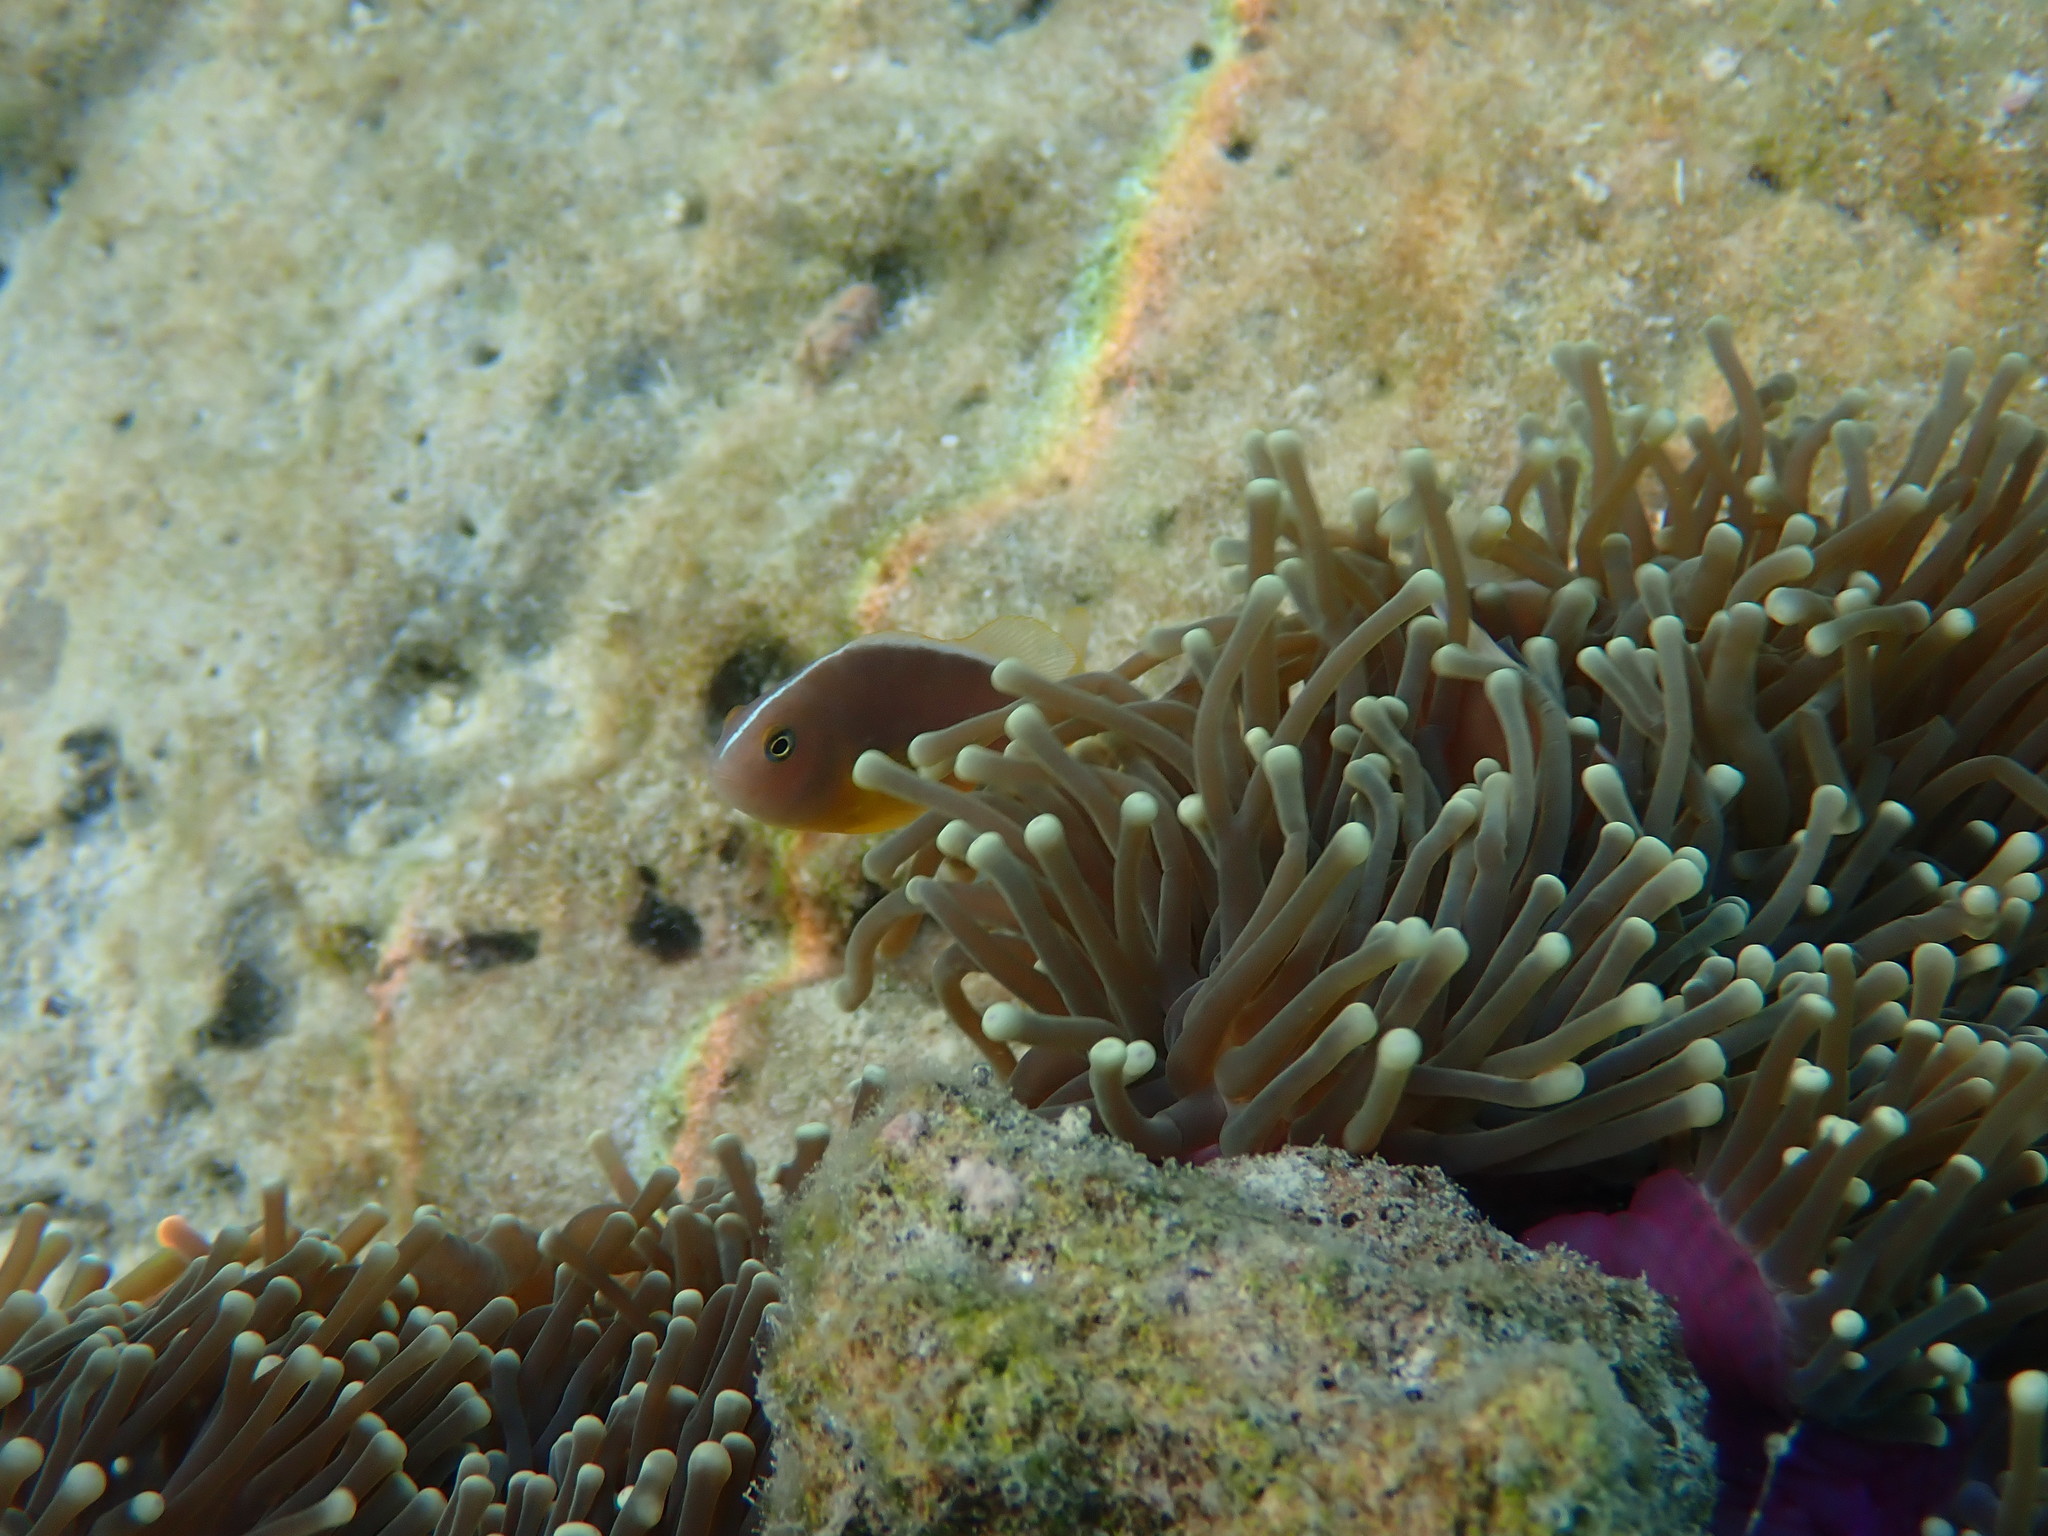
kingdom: Animalia
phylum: Chordata
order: Perciformes
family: Pomacentridae
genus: Amphiprion
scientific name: Amphiprion akallopisos
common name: Skunk clownfish
